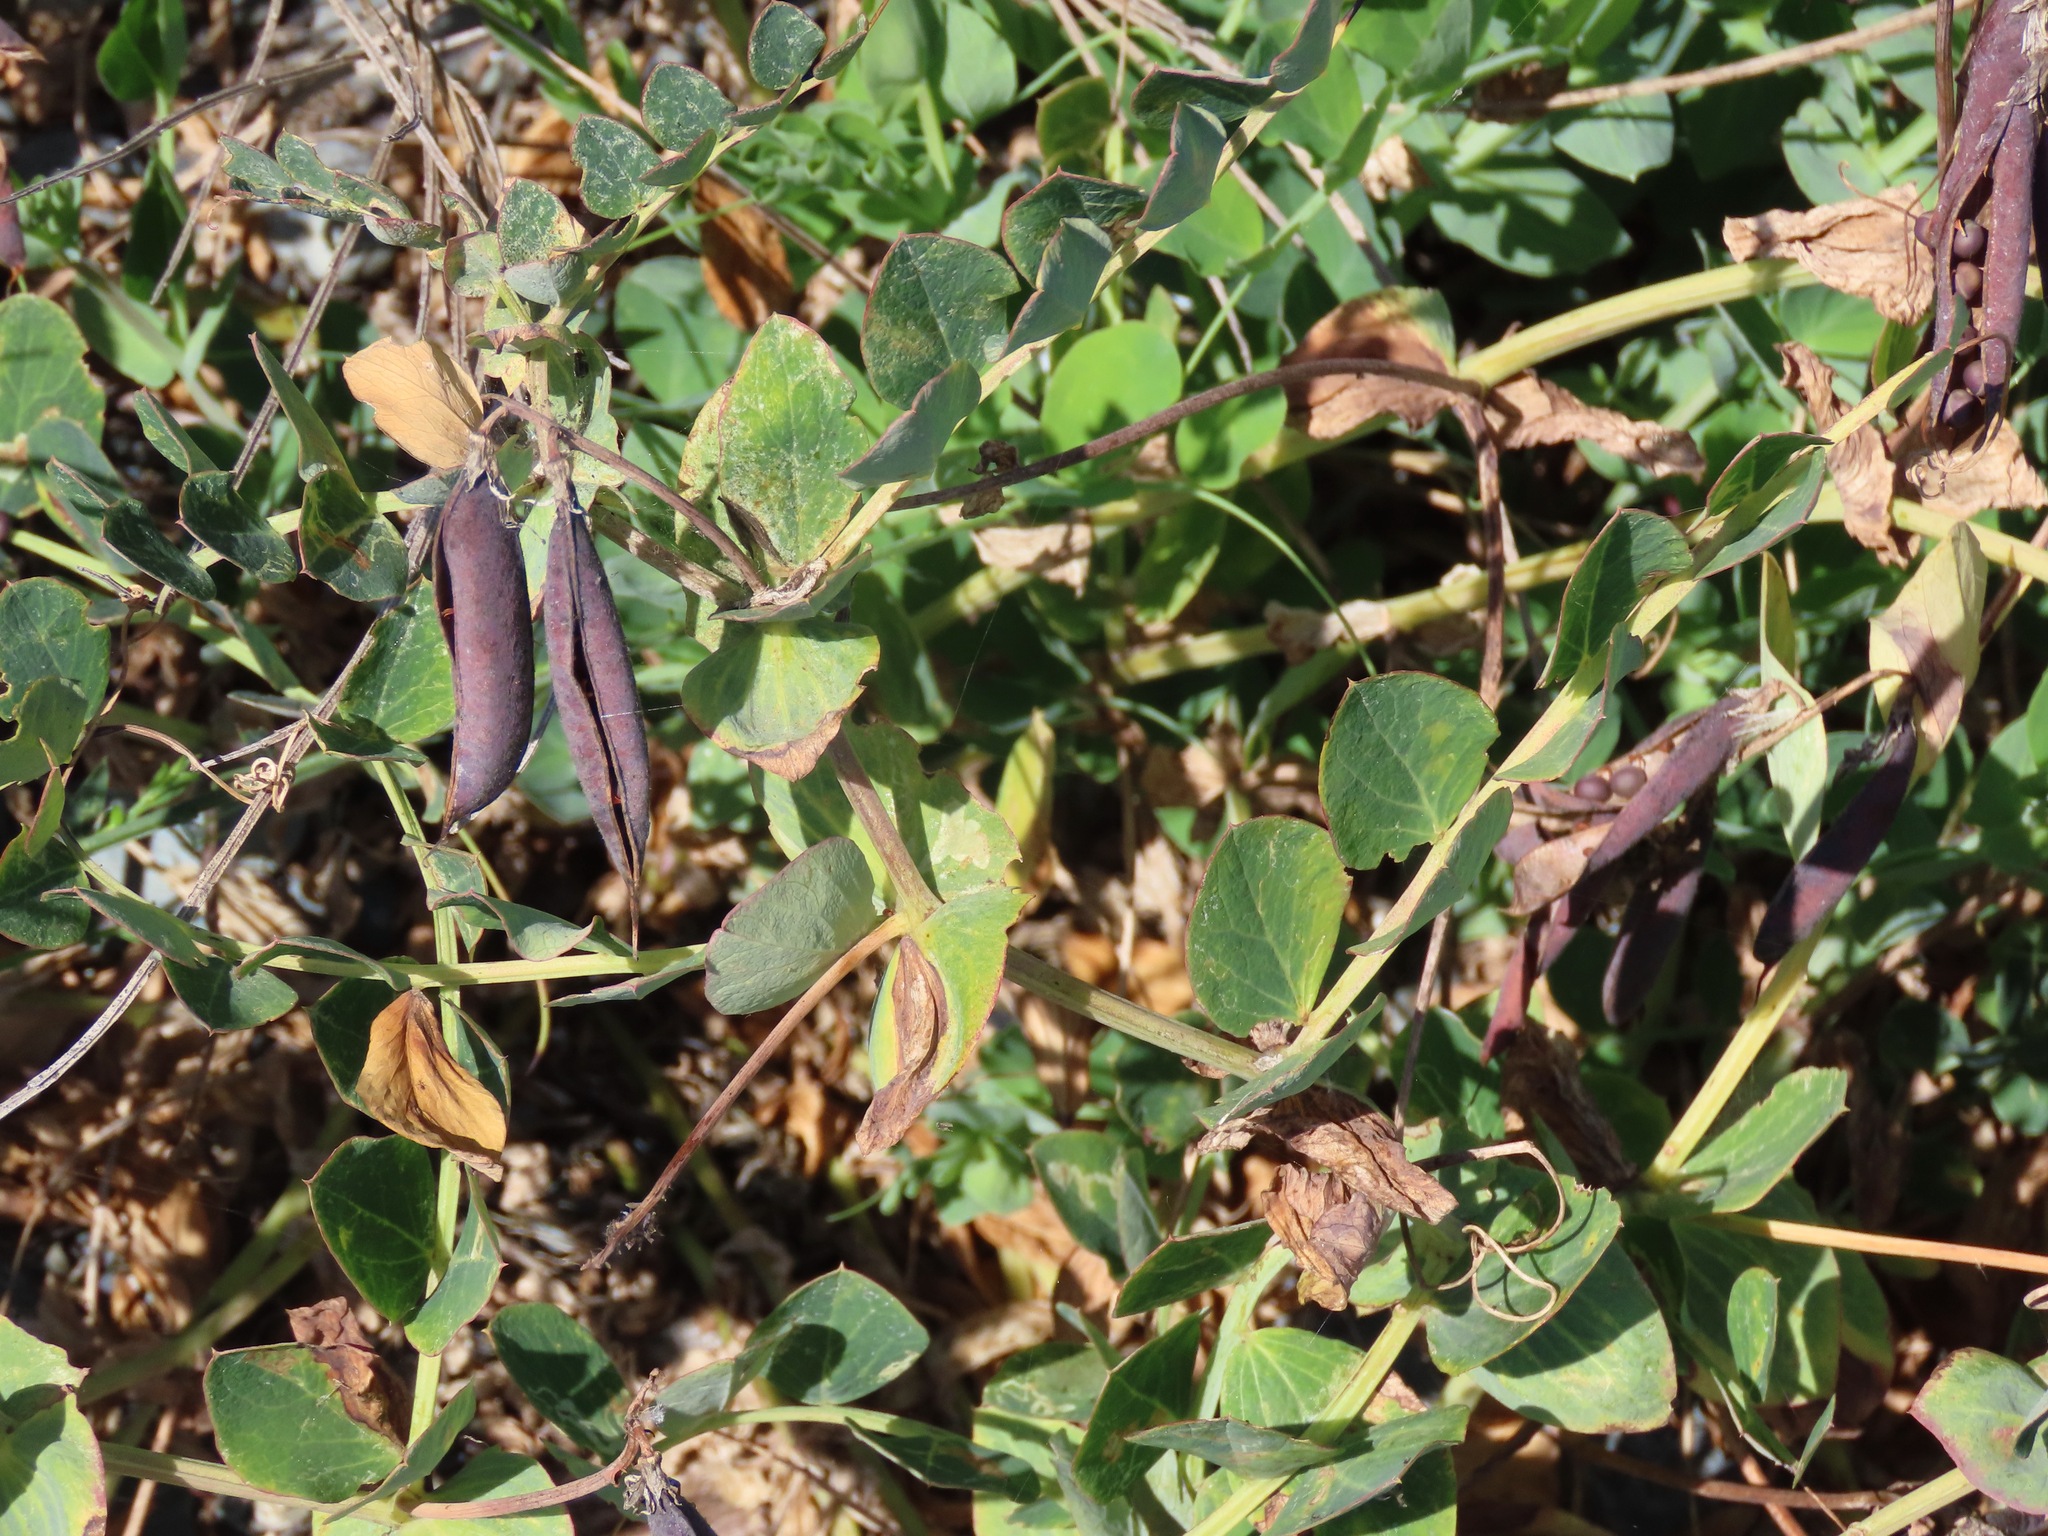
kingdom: Plantae
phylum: Tracheophyta
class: Magnoliopsida
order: Fabales
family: Fabaceae
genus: Lathyrus
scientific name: Lathyrus japonicus
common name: Sea pea
